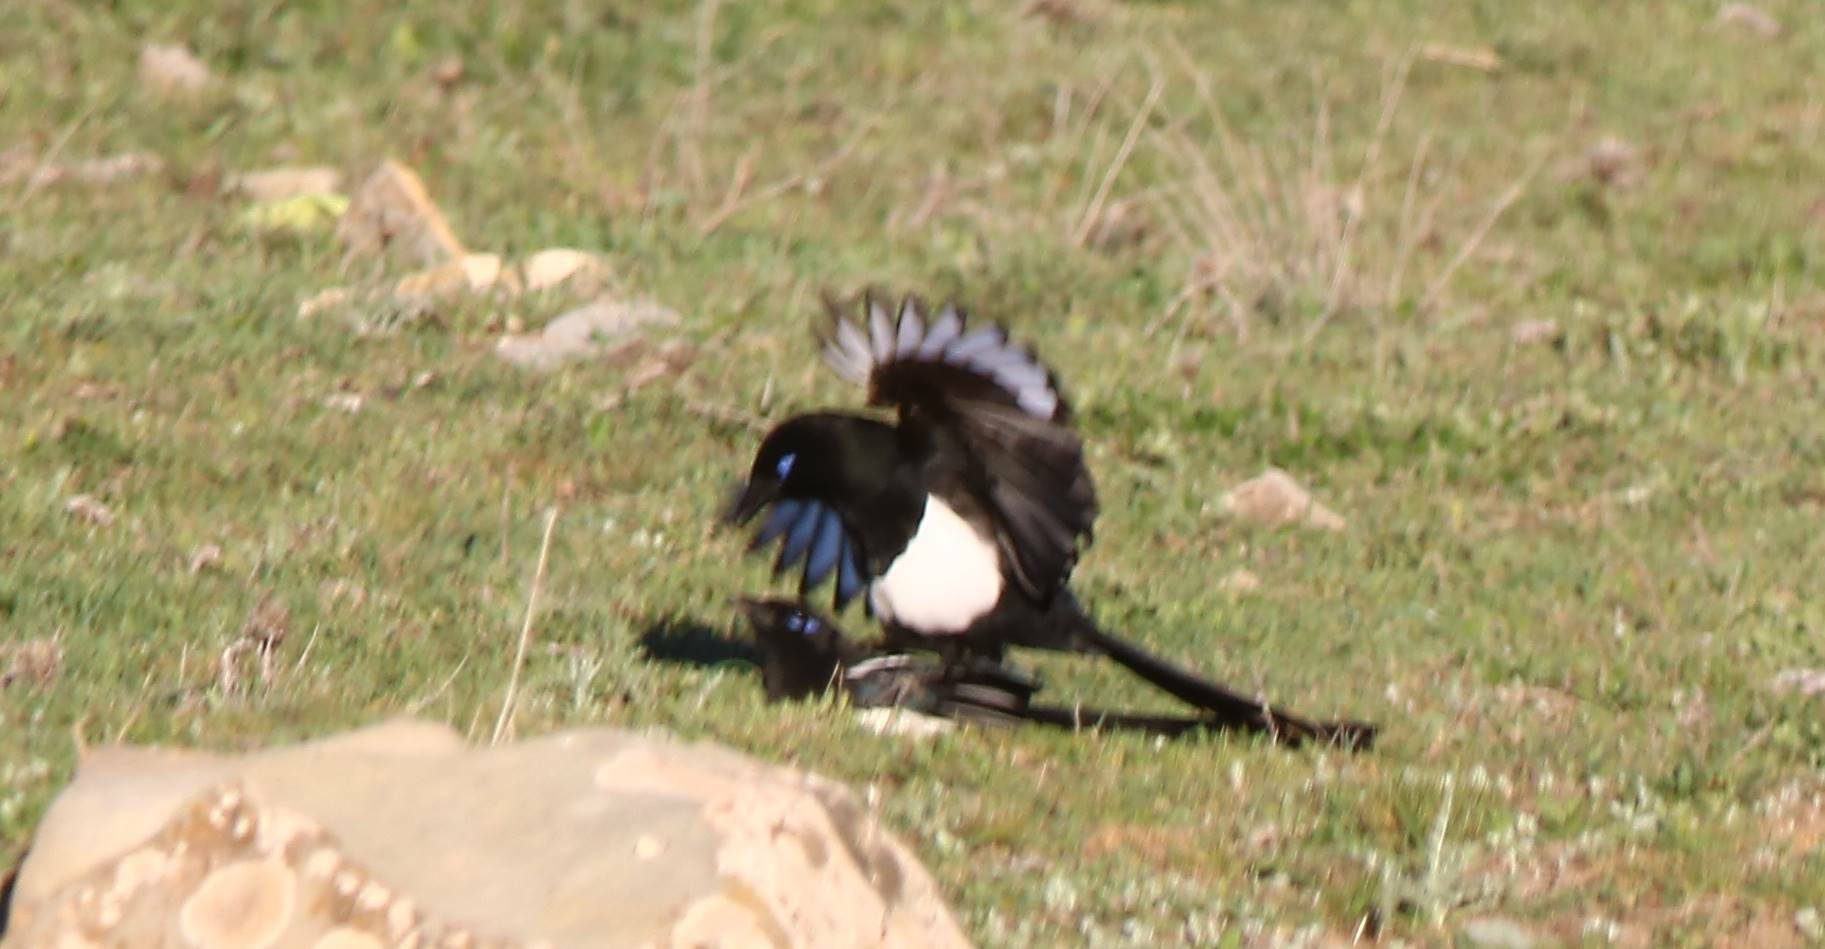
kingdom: Animalia
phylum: Chordata
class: Aves
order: Passeriformes
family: Corvidae
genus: Pica
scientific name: Pica mauritanica
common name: Maghreb magpie
